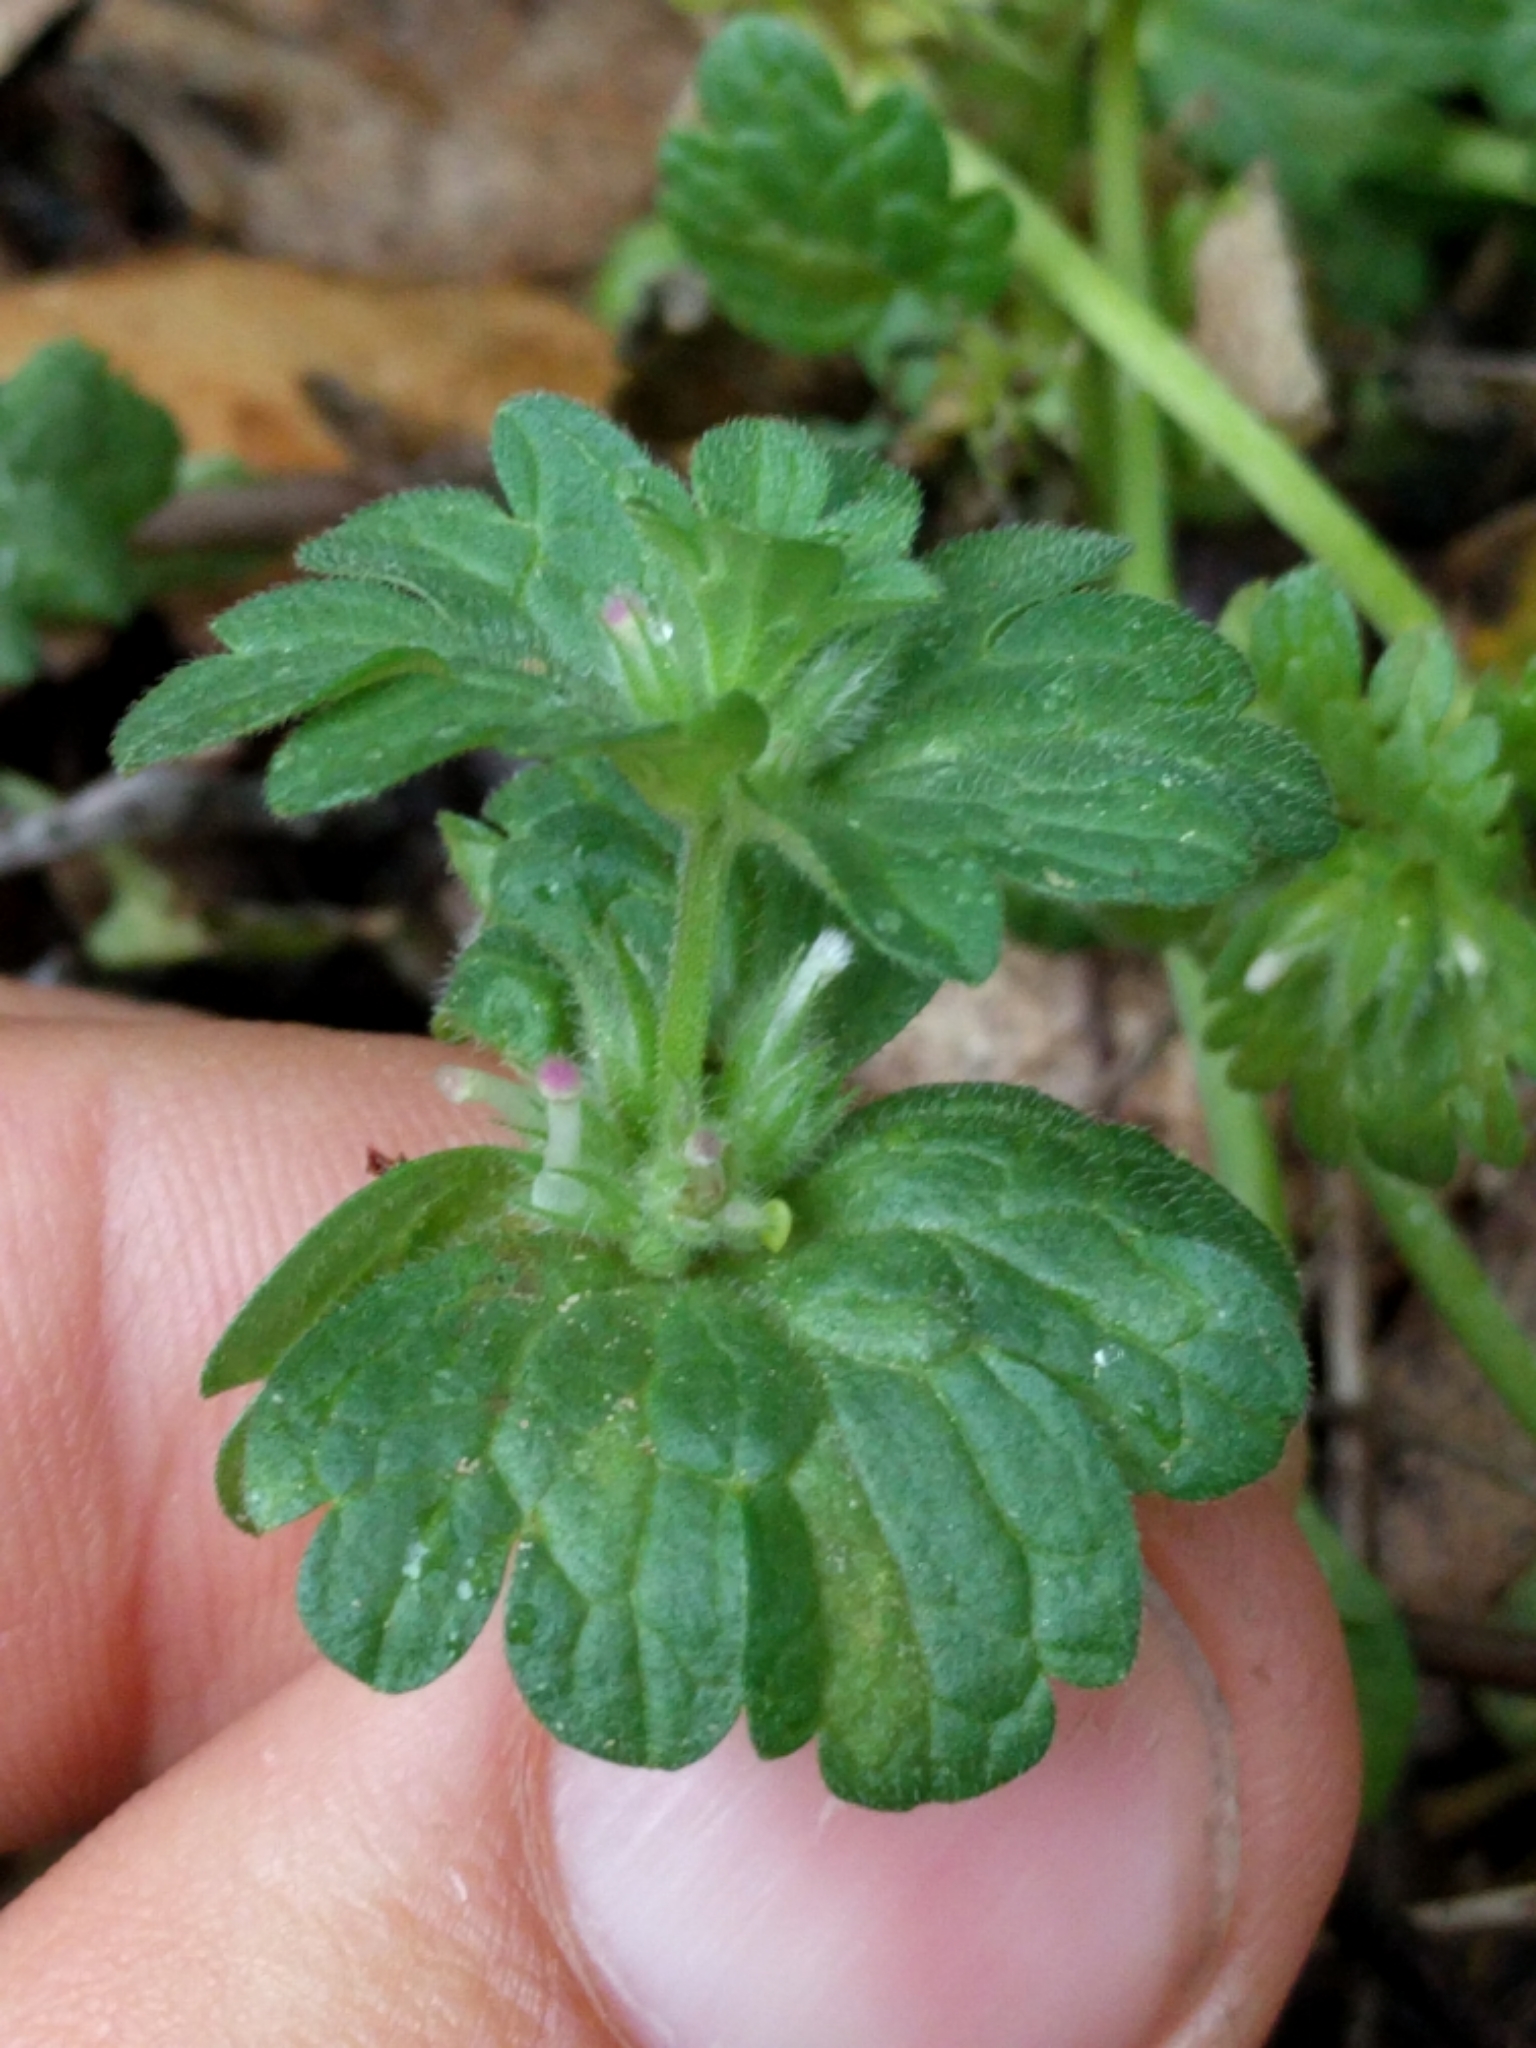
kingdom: Plantae
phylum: Tracheophyta
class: Magnoliopsida
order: Lamiales
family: Lamiaceae
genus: Lamium
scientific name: Lamium amplexicaule
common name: Henbit dead-nettle
